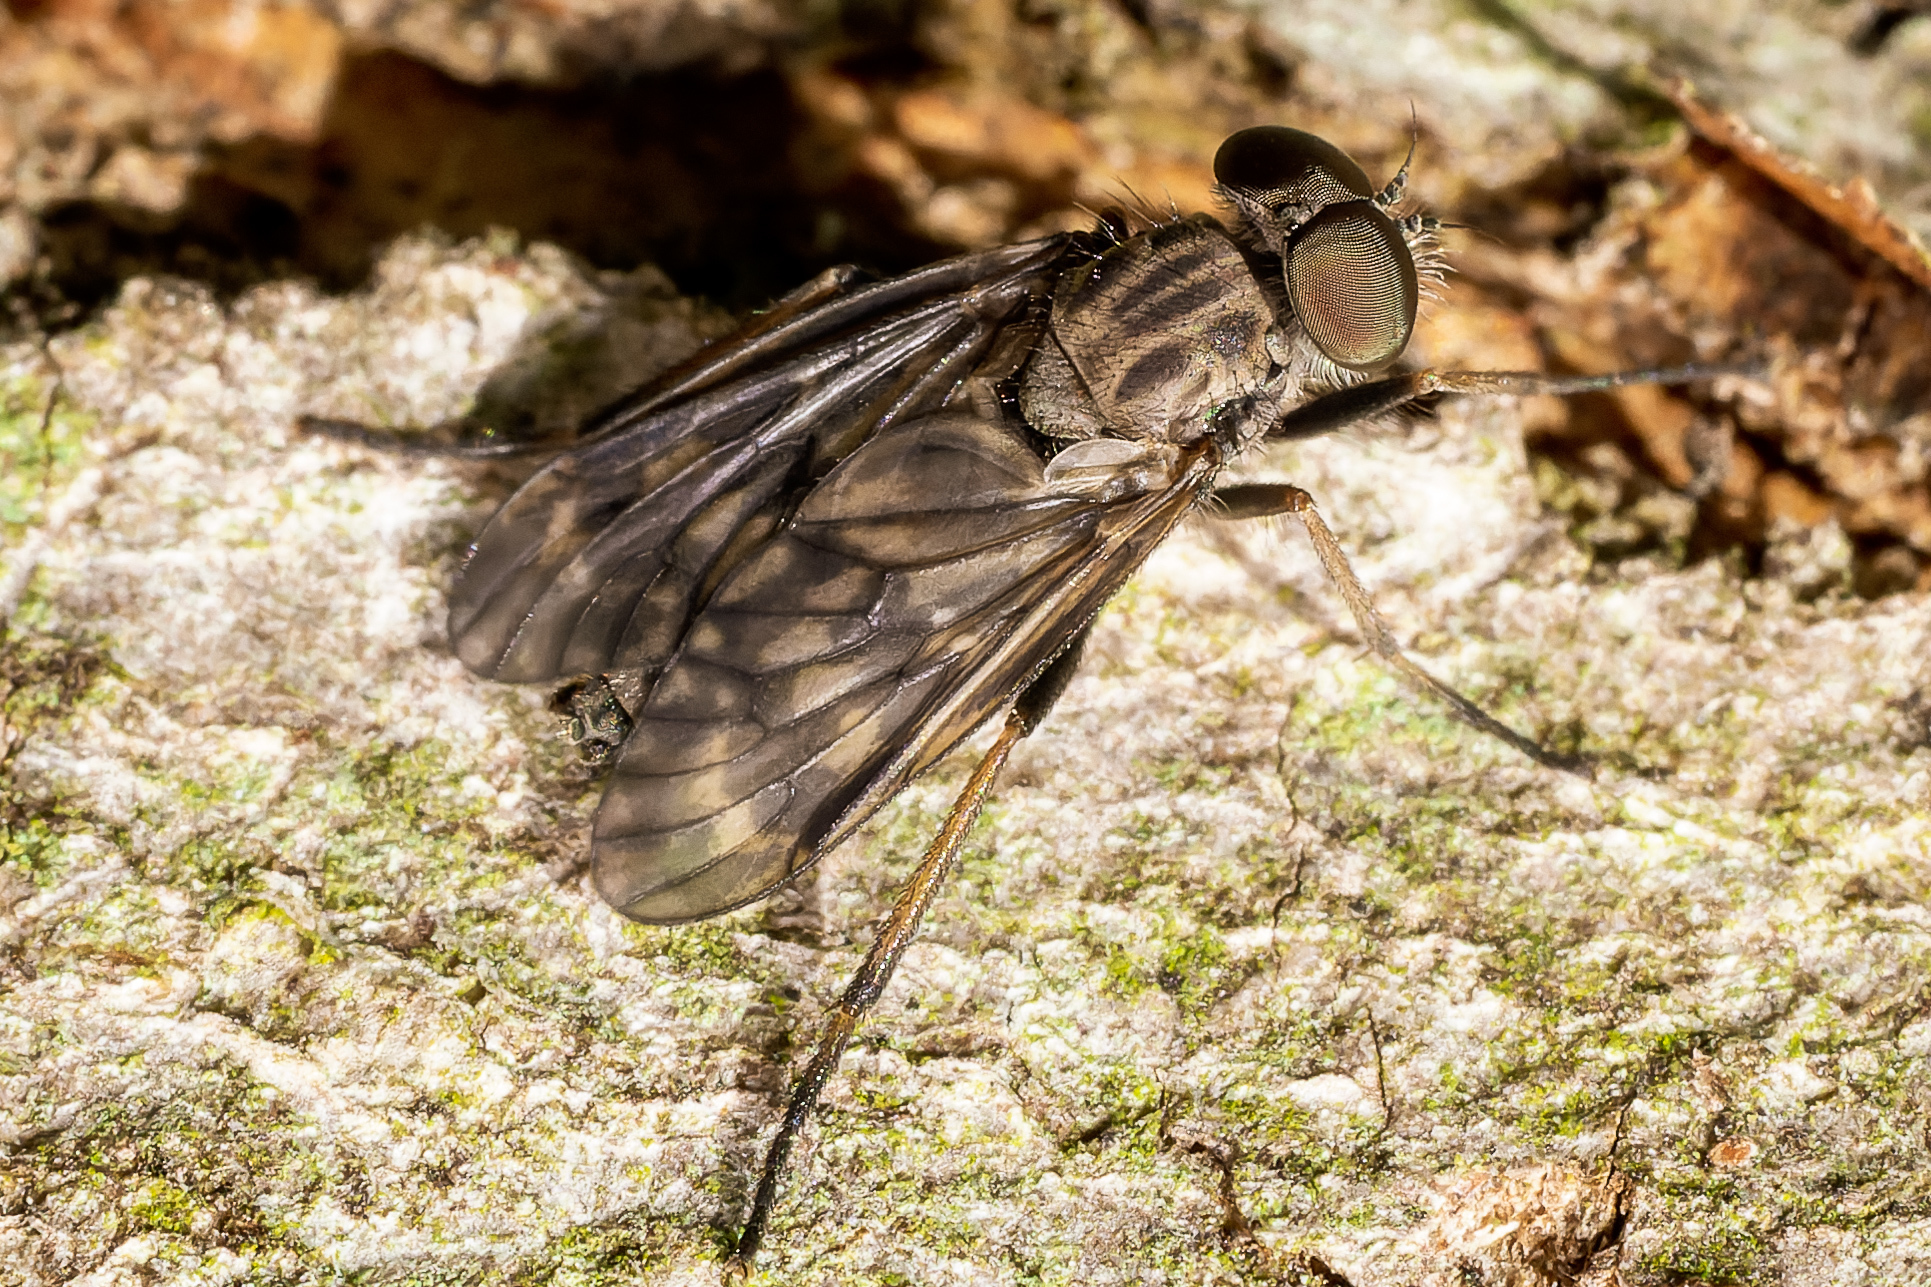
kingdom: Animalia
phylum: Arthropoda
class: Insecta
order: Diptera
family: Rhagionidae
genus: Rhagio
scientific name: Rhagio mystaceus
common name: Common snipe fly
